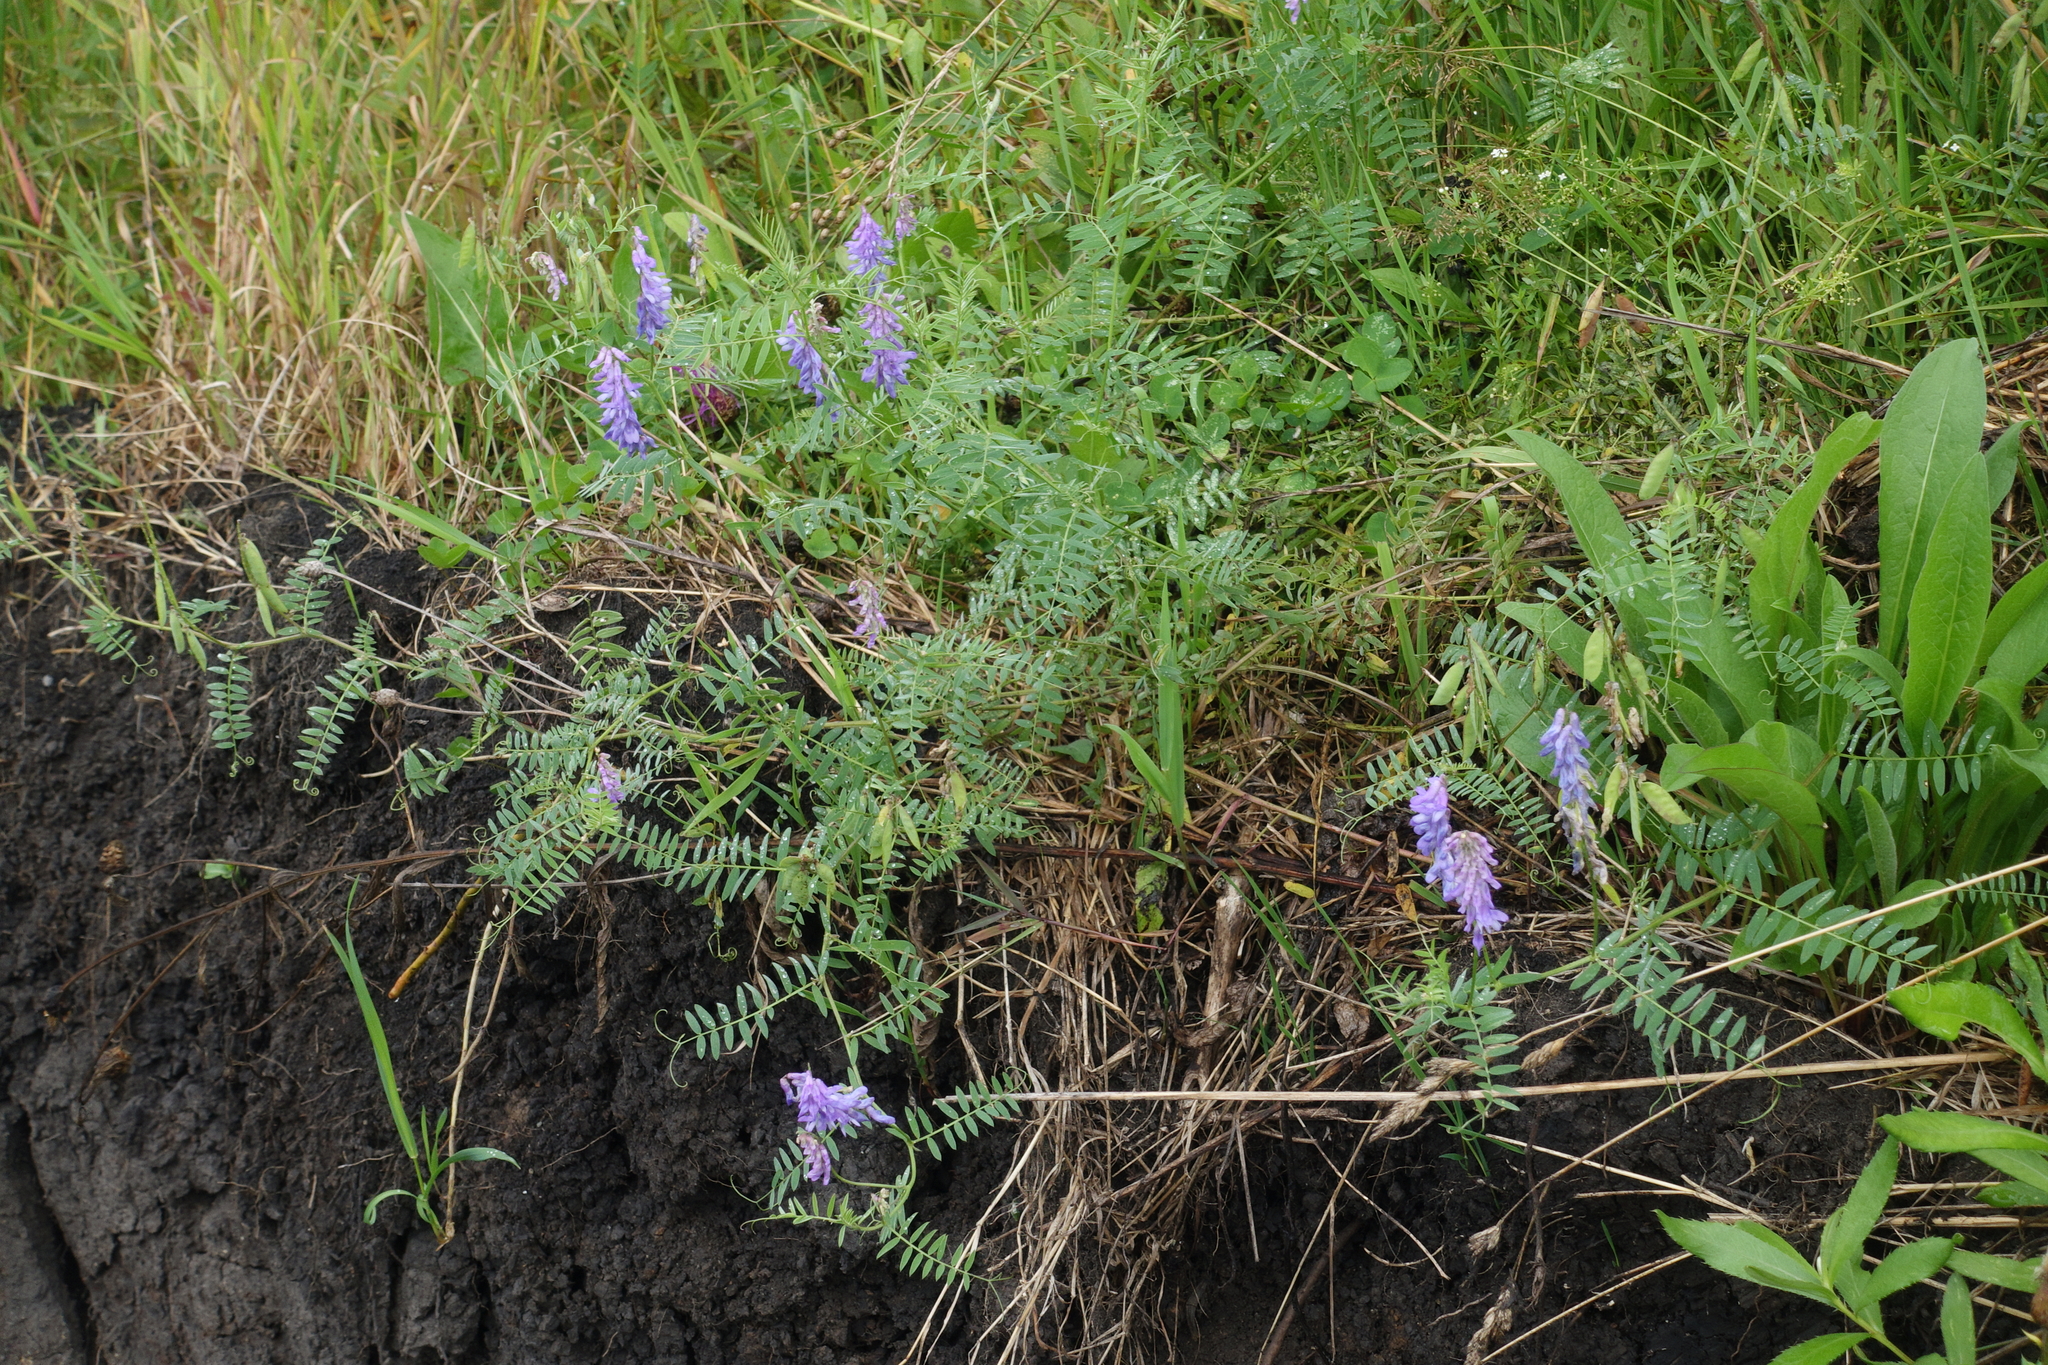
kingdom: Plantae
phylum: Tracheophyta
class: Magnoliopsida
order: Fabales
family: Fabaceae
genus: Vicia
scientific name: Vicia cracca
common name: Bird vetch
